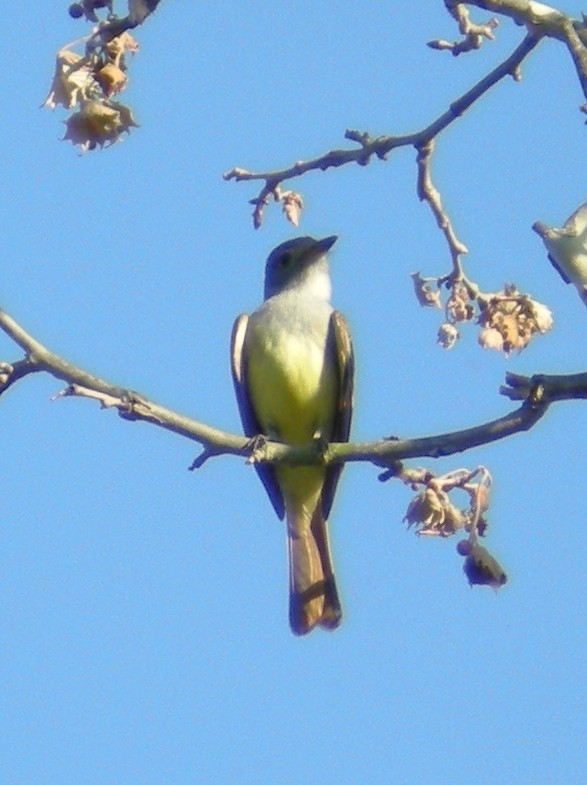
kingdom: Animalia
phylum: Chordata
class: Aves
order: Passeriformes
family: Tyrannidae
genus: Myiarchus
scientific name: Myiarchus crinitus
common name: Great crested flycatcher
